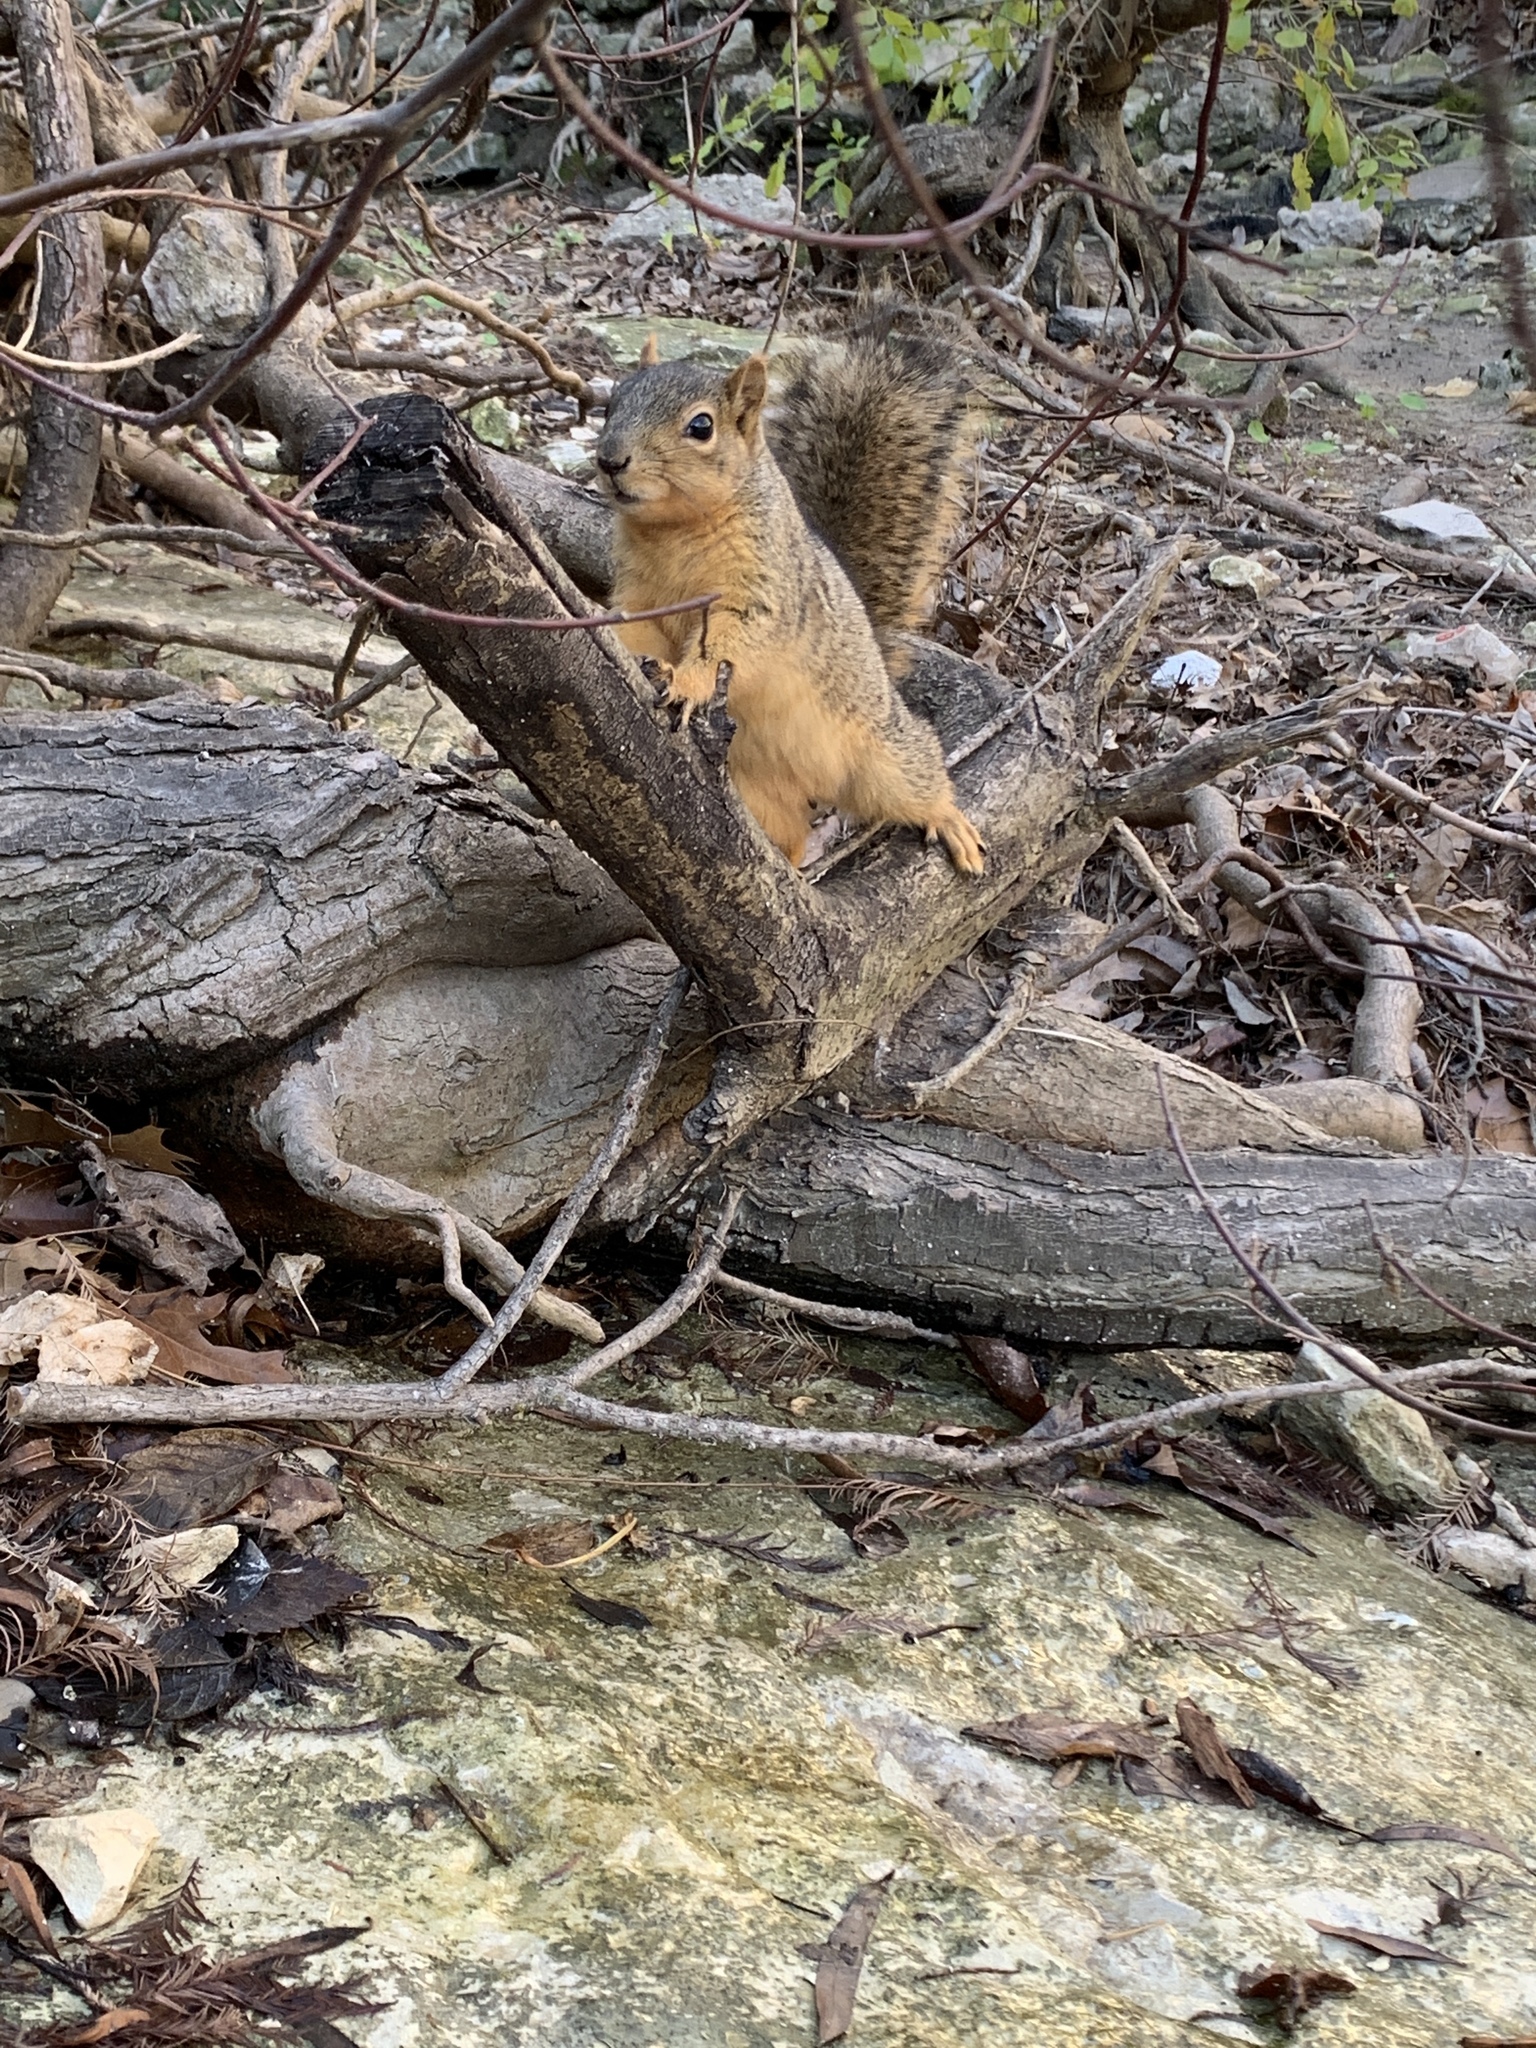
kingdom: Animalia
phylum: Chordata
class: Mammalia
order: Rodentia
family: Sciuridae
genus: Sciurus
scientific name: Sciurus niger
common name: Fox squirrel
